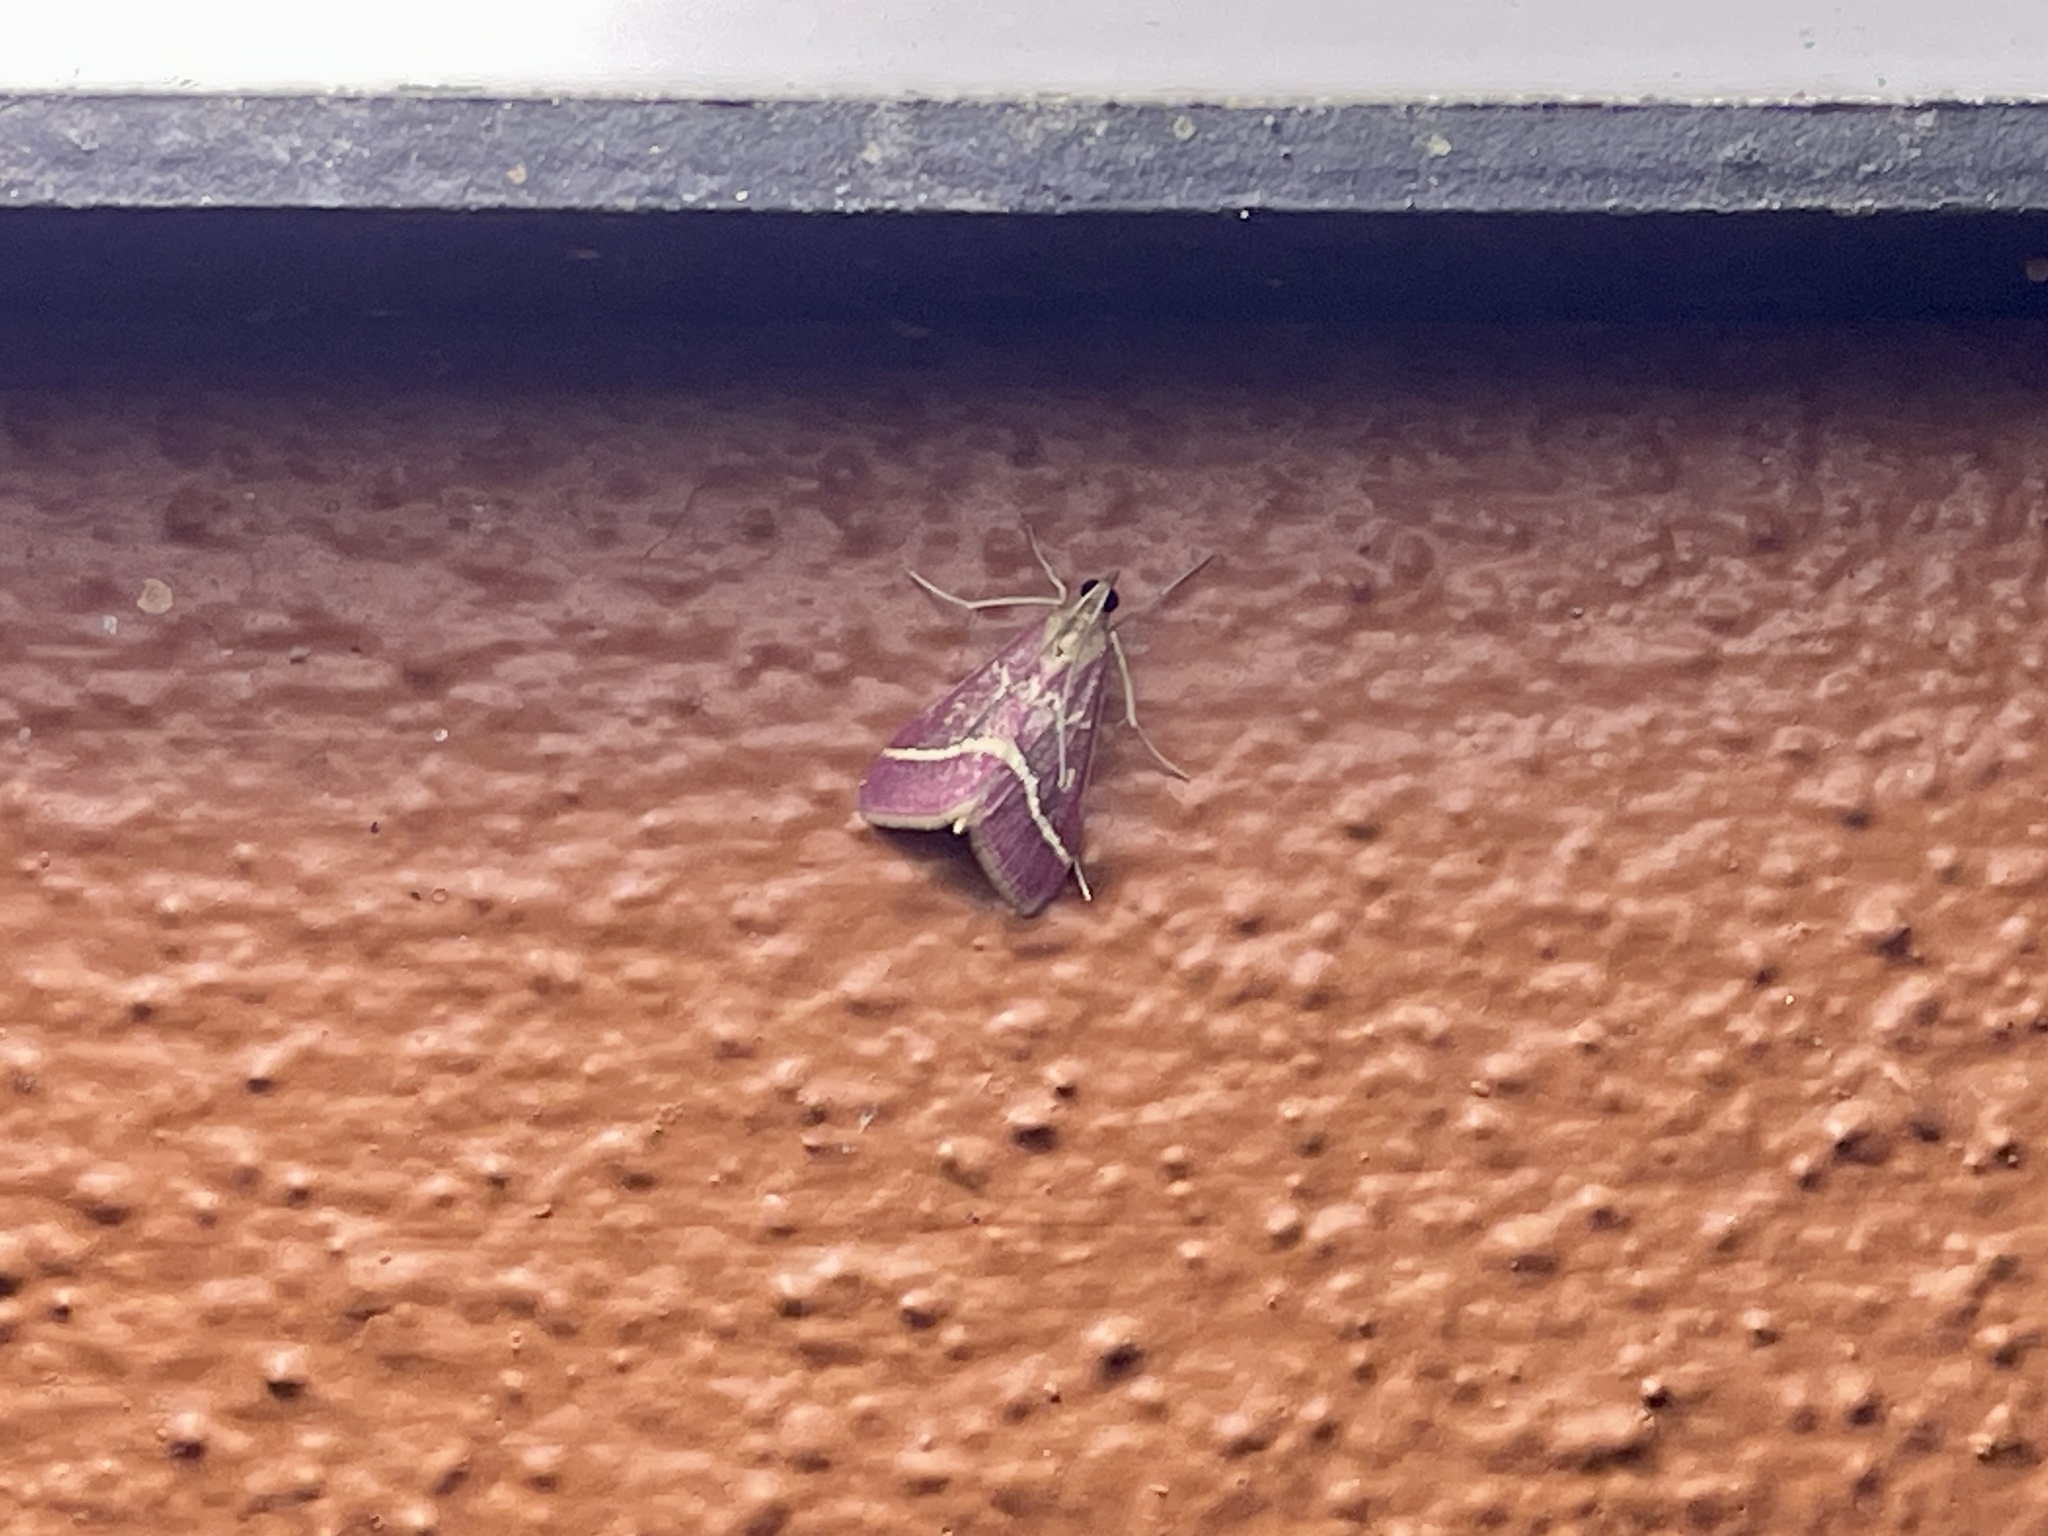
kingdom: Animalia
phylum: Arthropoda
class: Insecta
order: Lepidoptera
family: Crambidae
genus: Pyrausta
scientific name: Pyrausta volupialis
